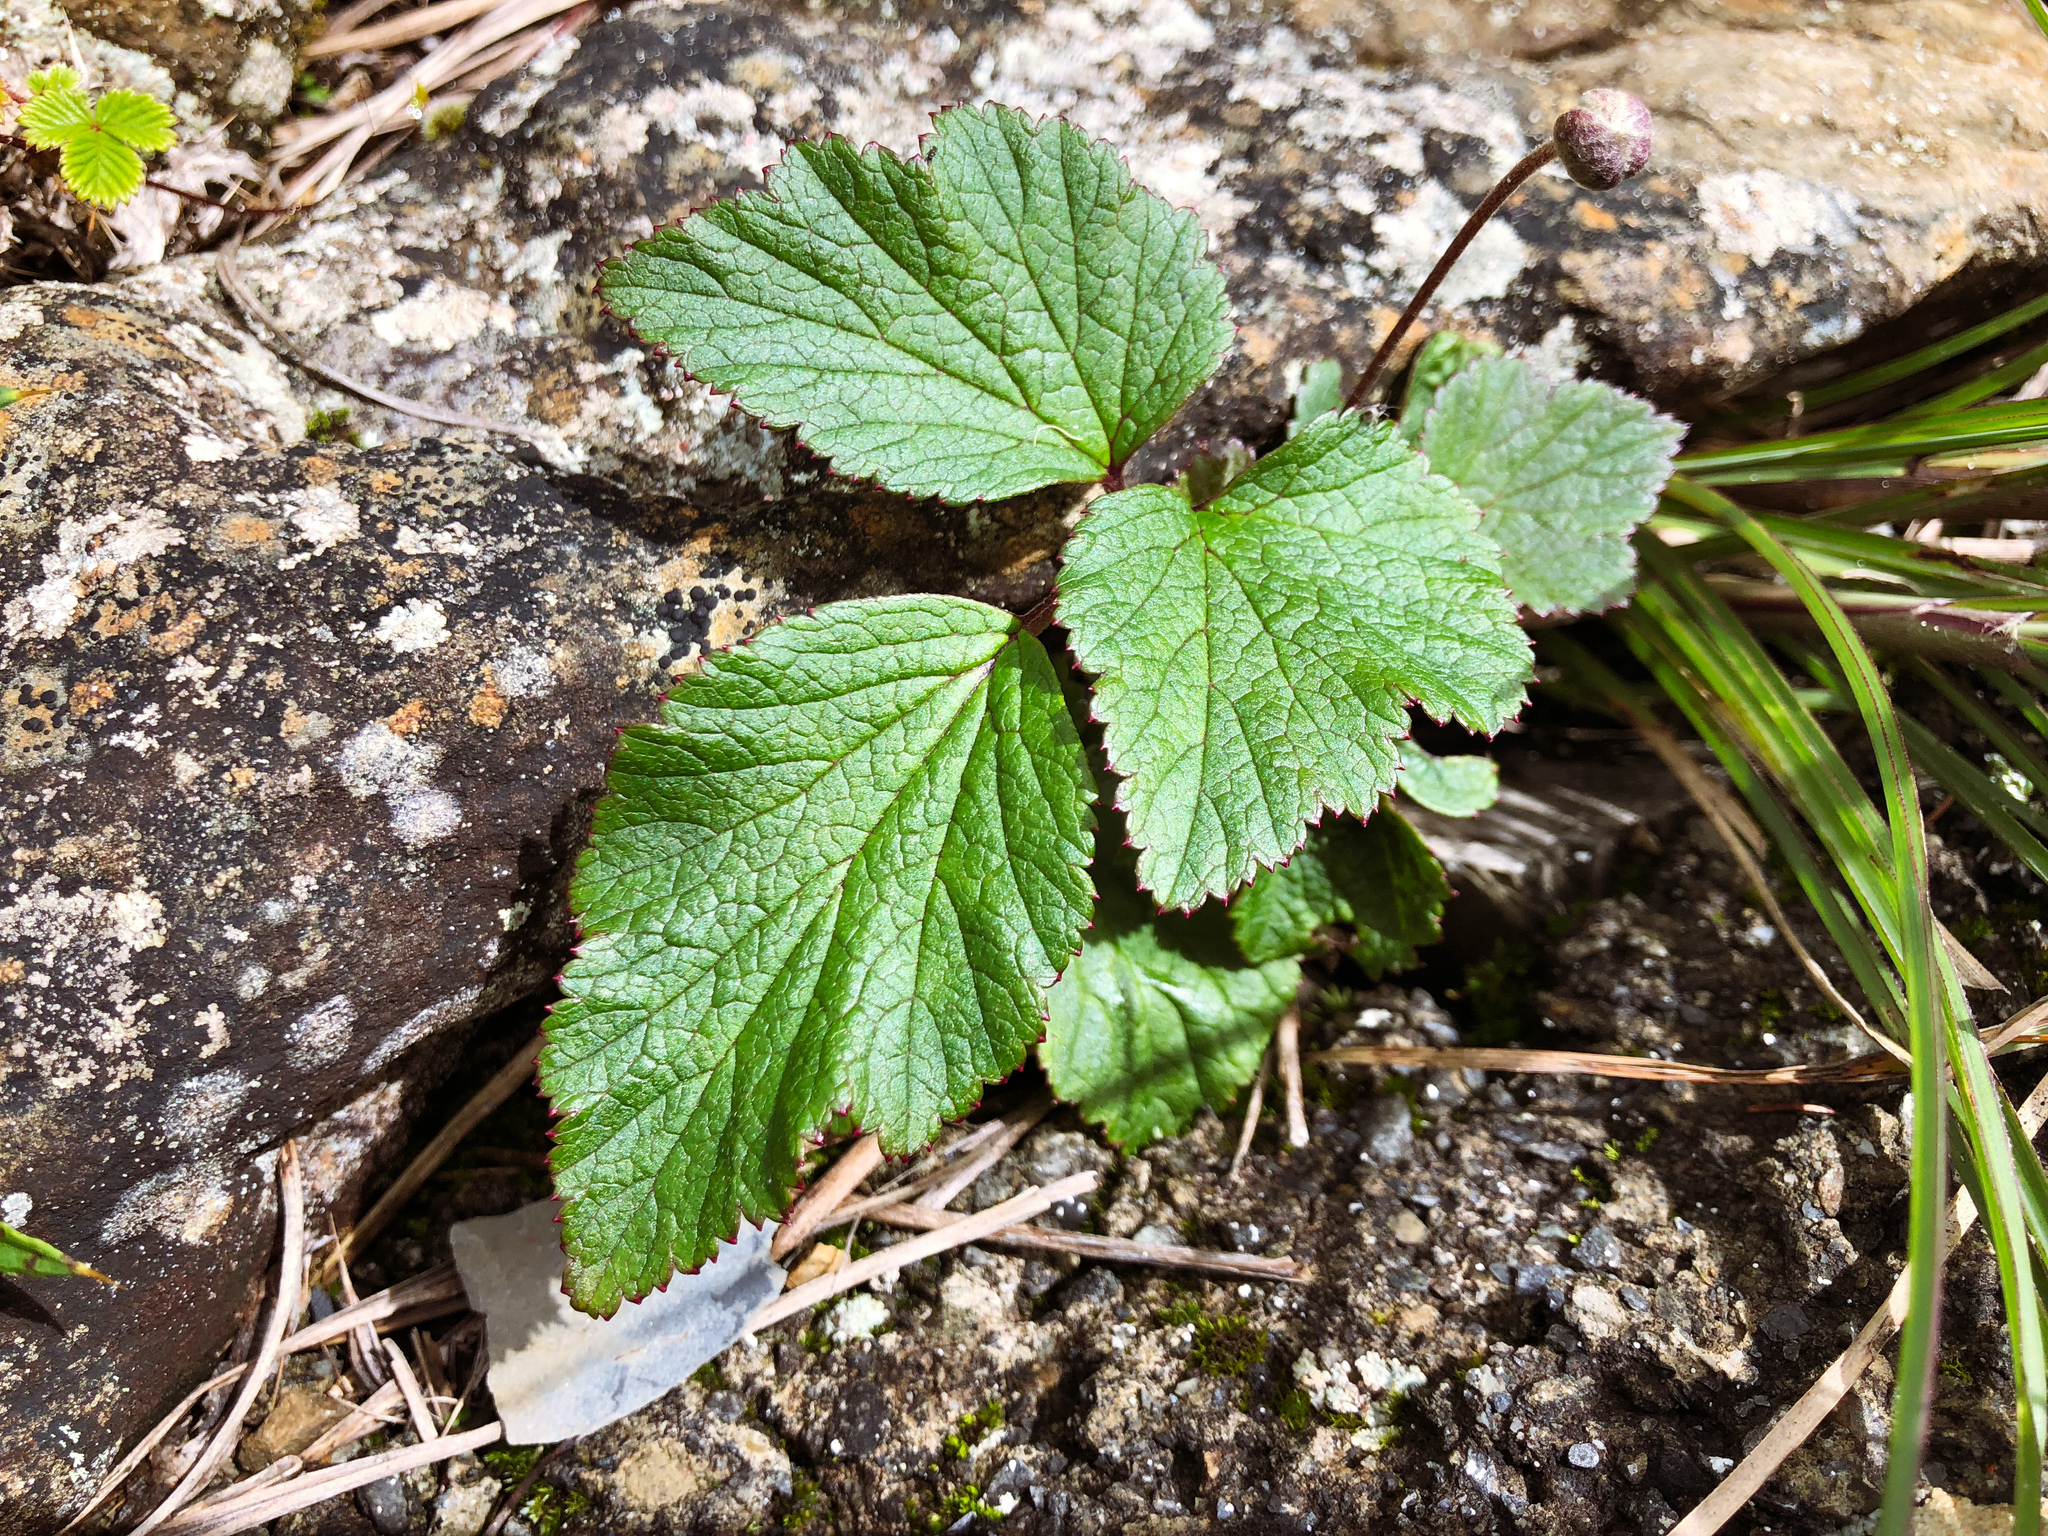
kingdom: Plantae
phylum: Tracheophyta
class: Magnoliopsida
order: Ranunculales
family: Ranunculaceae
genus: Eriocapitella
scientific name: Eriocapitella vitifolia
